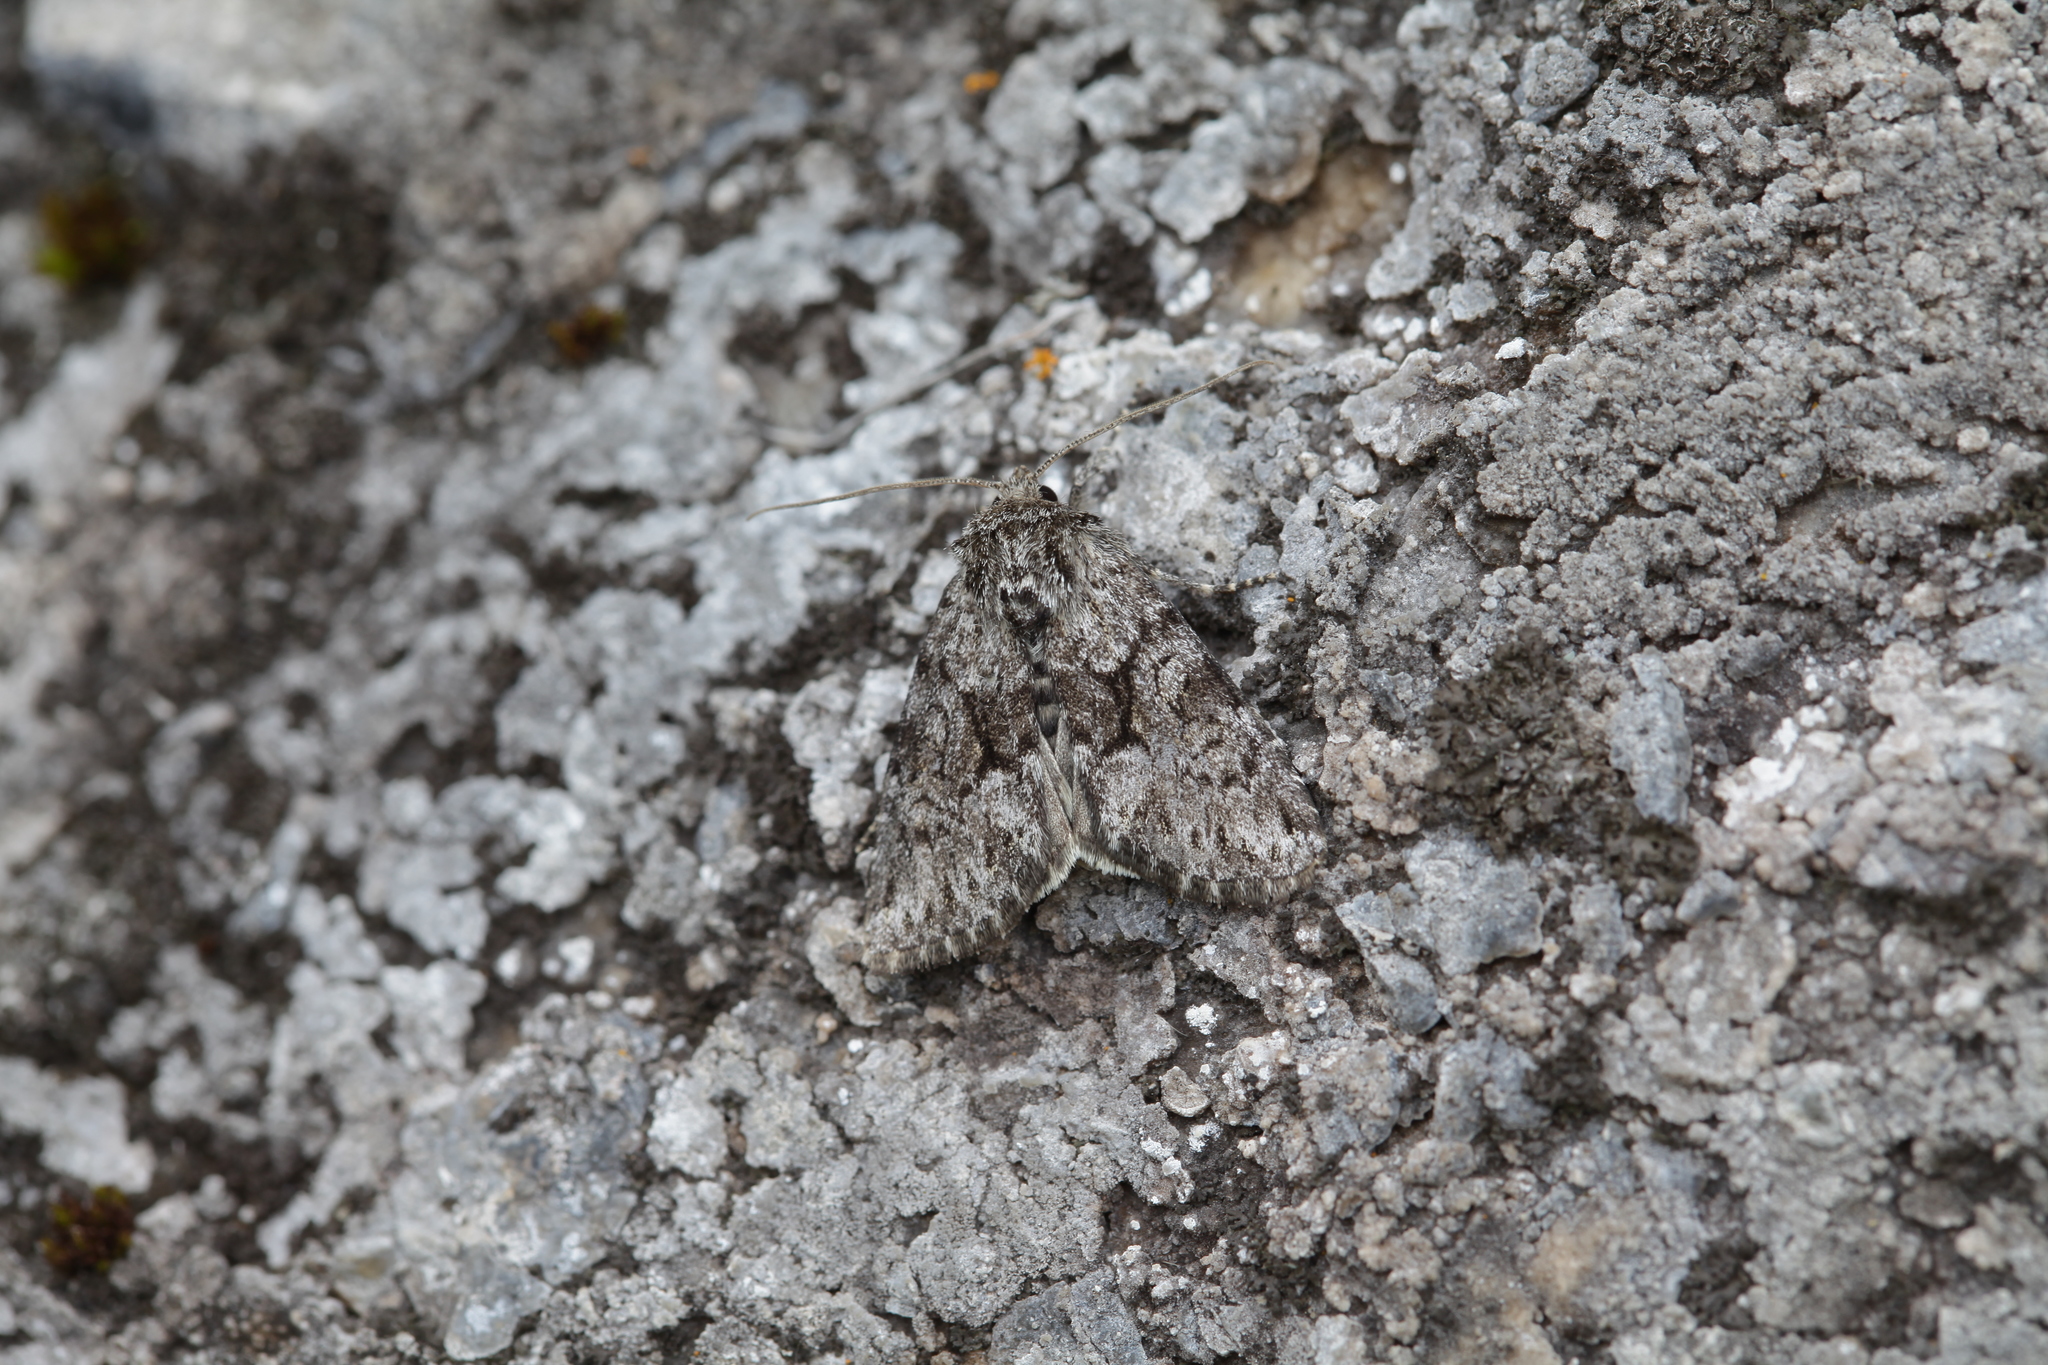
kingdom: Animalia
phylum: Arthropoda
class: Insecta
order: Lepidoptera
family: Noctuidae
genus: Lasionycta
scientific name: Lasionycta hospita
